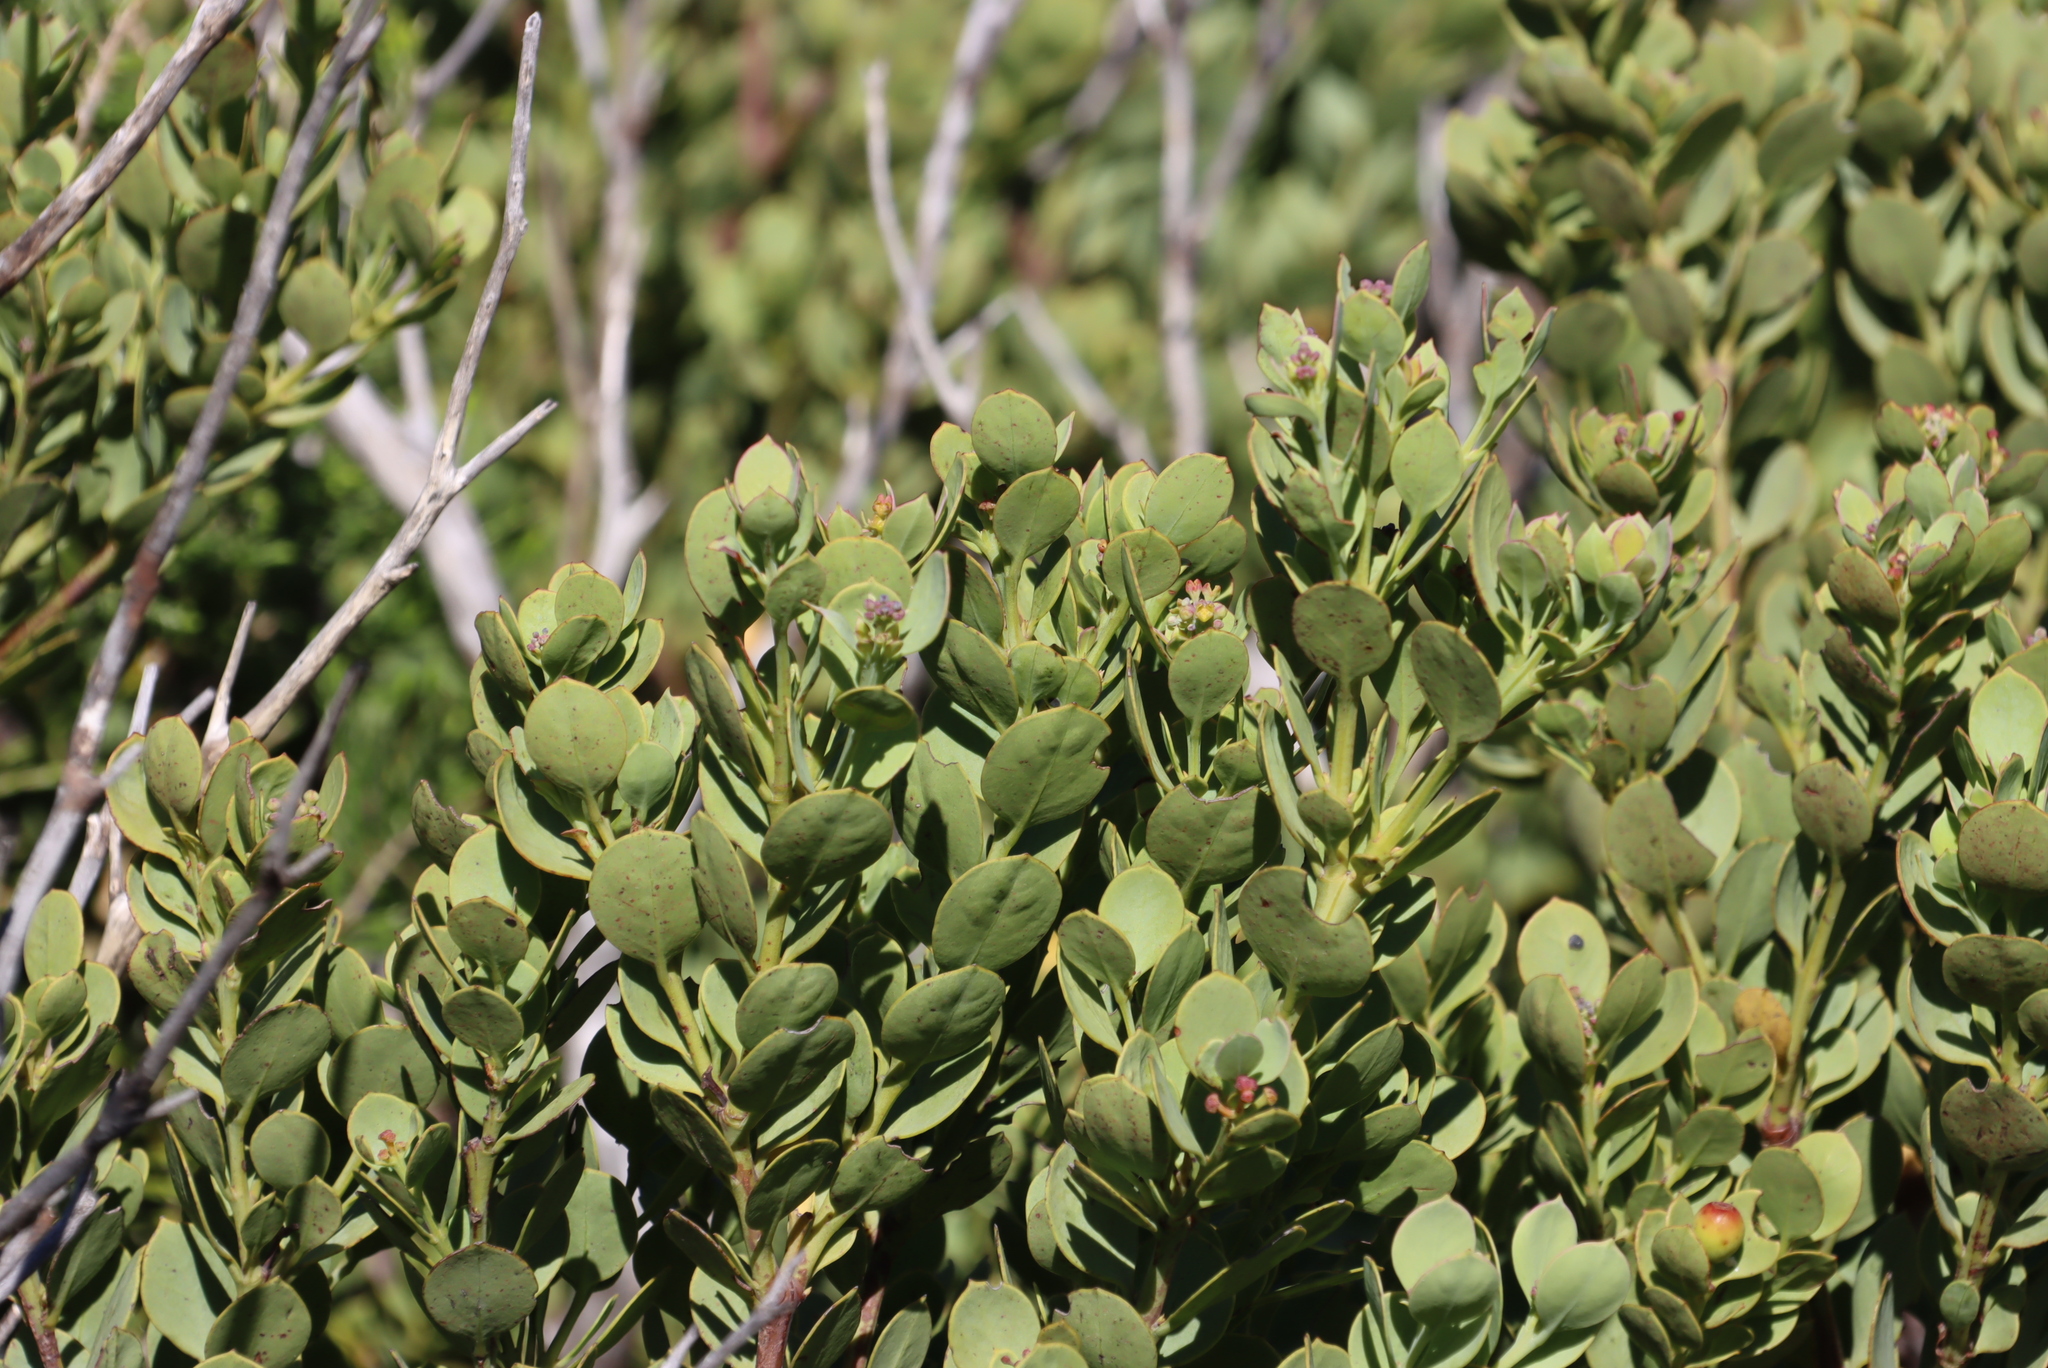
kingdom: Plantae
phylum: Tracheophyta
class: Magnoliopsida
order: Santalales
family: Santalaceae
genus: Osyris
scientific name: Osyris compressa
